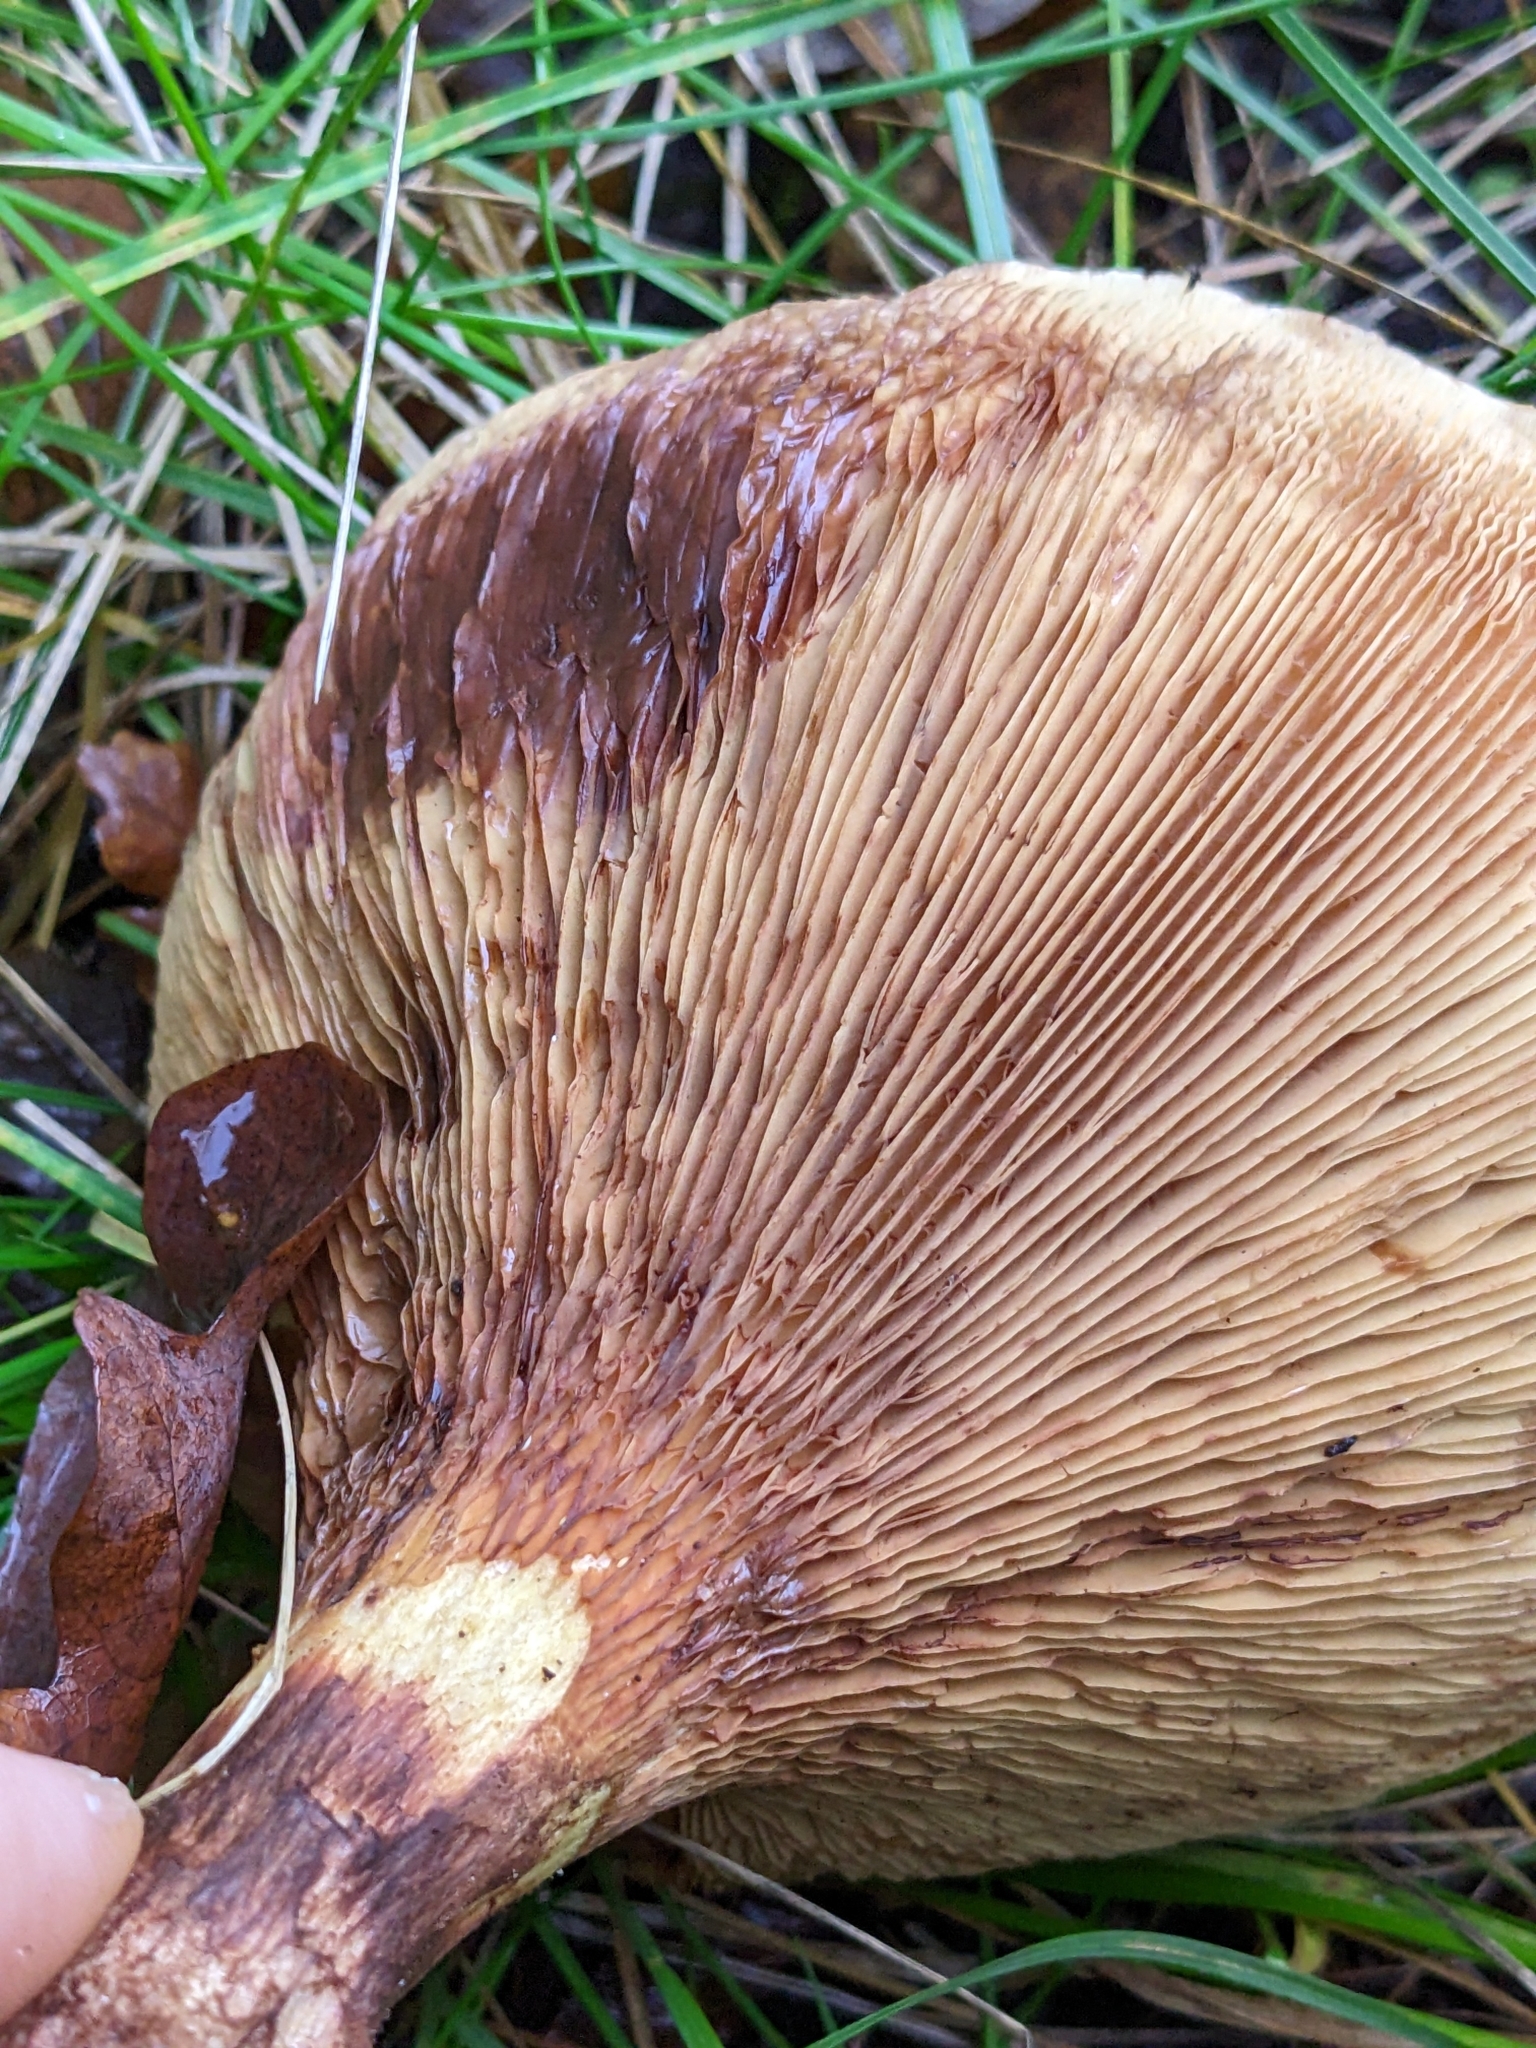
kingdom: Fungi
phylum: Basidiomycota
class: Agaricomycetes
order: Boletales
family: Paxillaceae
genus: Paxillus
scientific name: Paxillus involutus
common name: Brown roll rim
